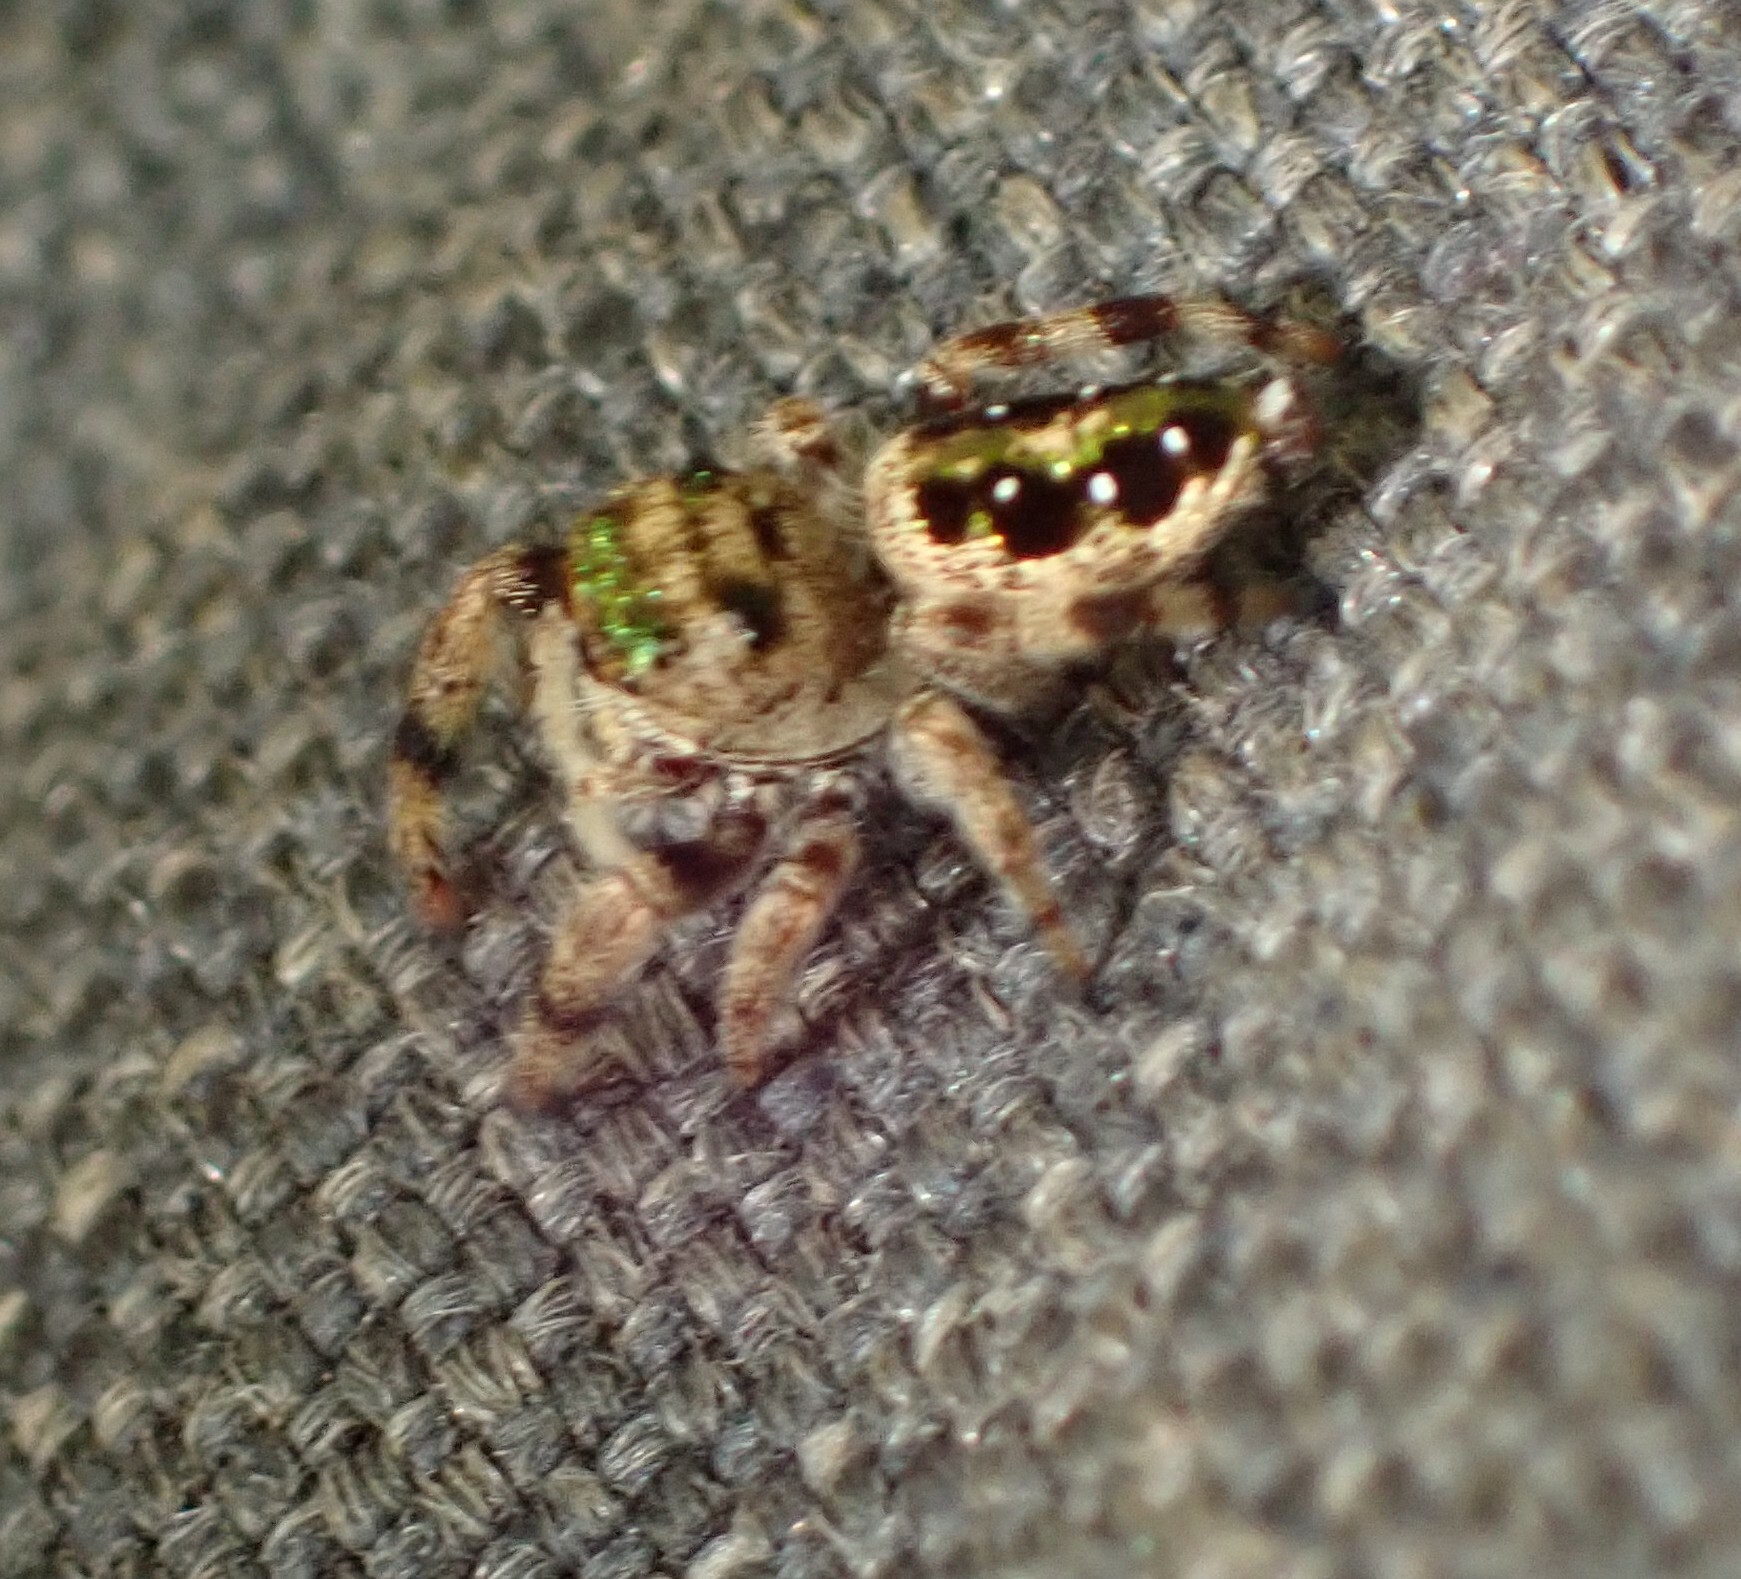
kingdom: Animalia
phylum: Arthropoda
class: Arachnida
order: Araneae
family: Salticidae
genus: Parnaenus
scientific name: Parnaenus cyanidens
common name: Jumping spiders
